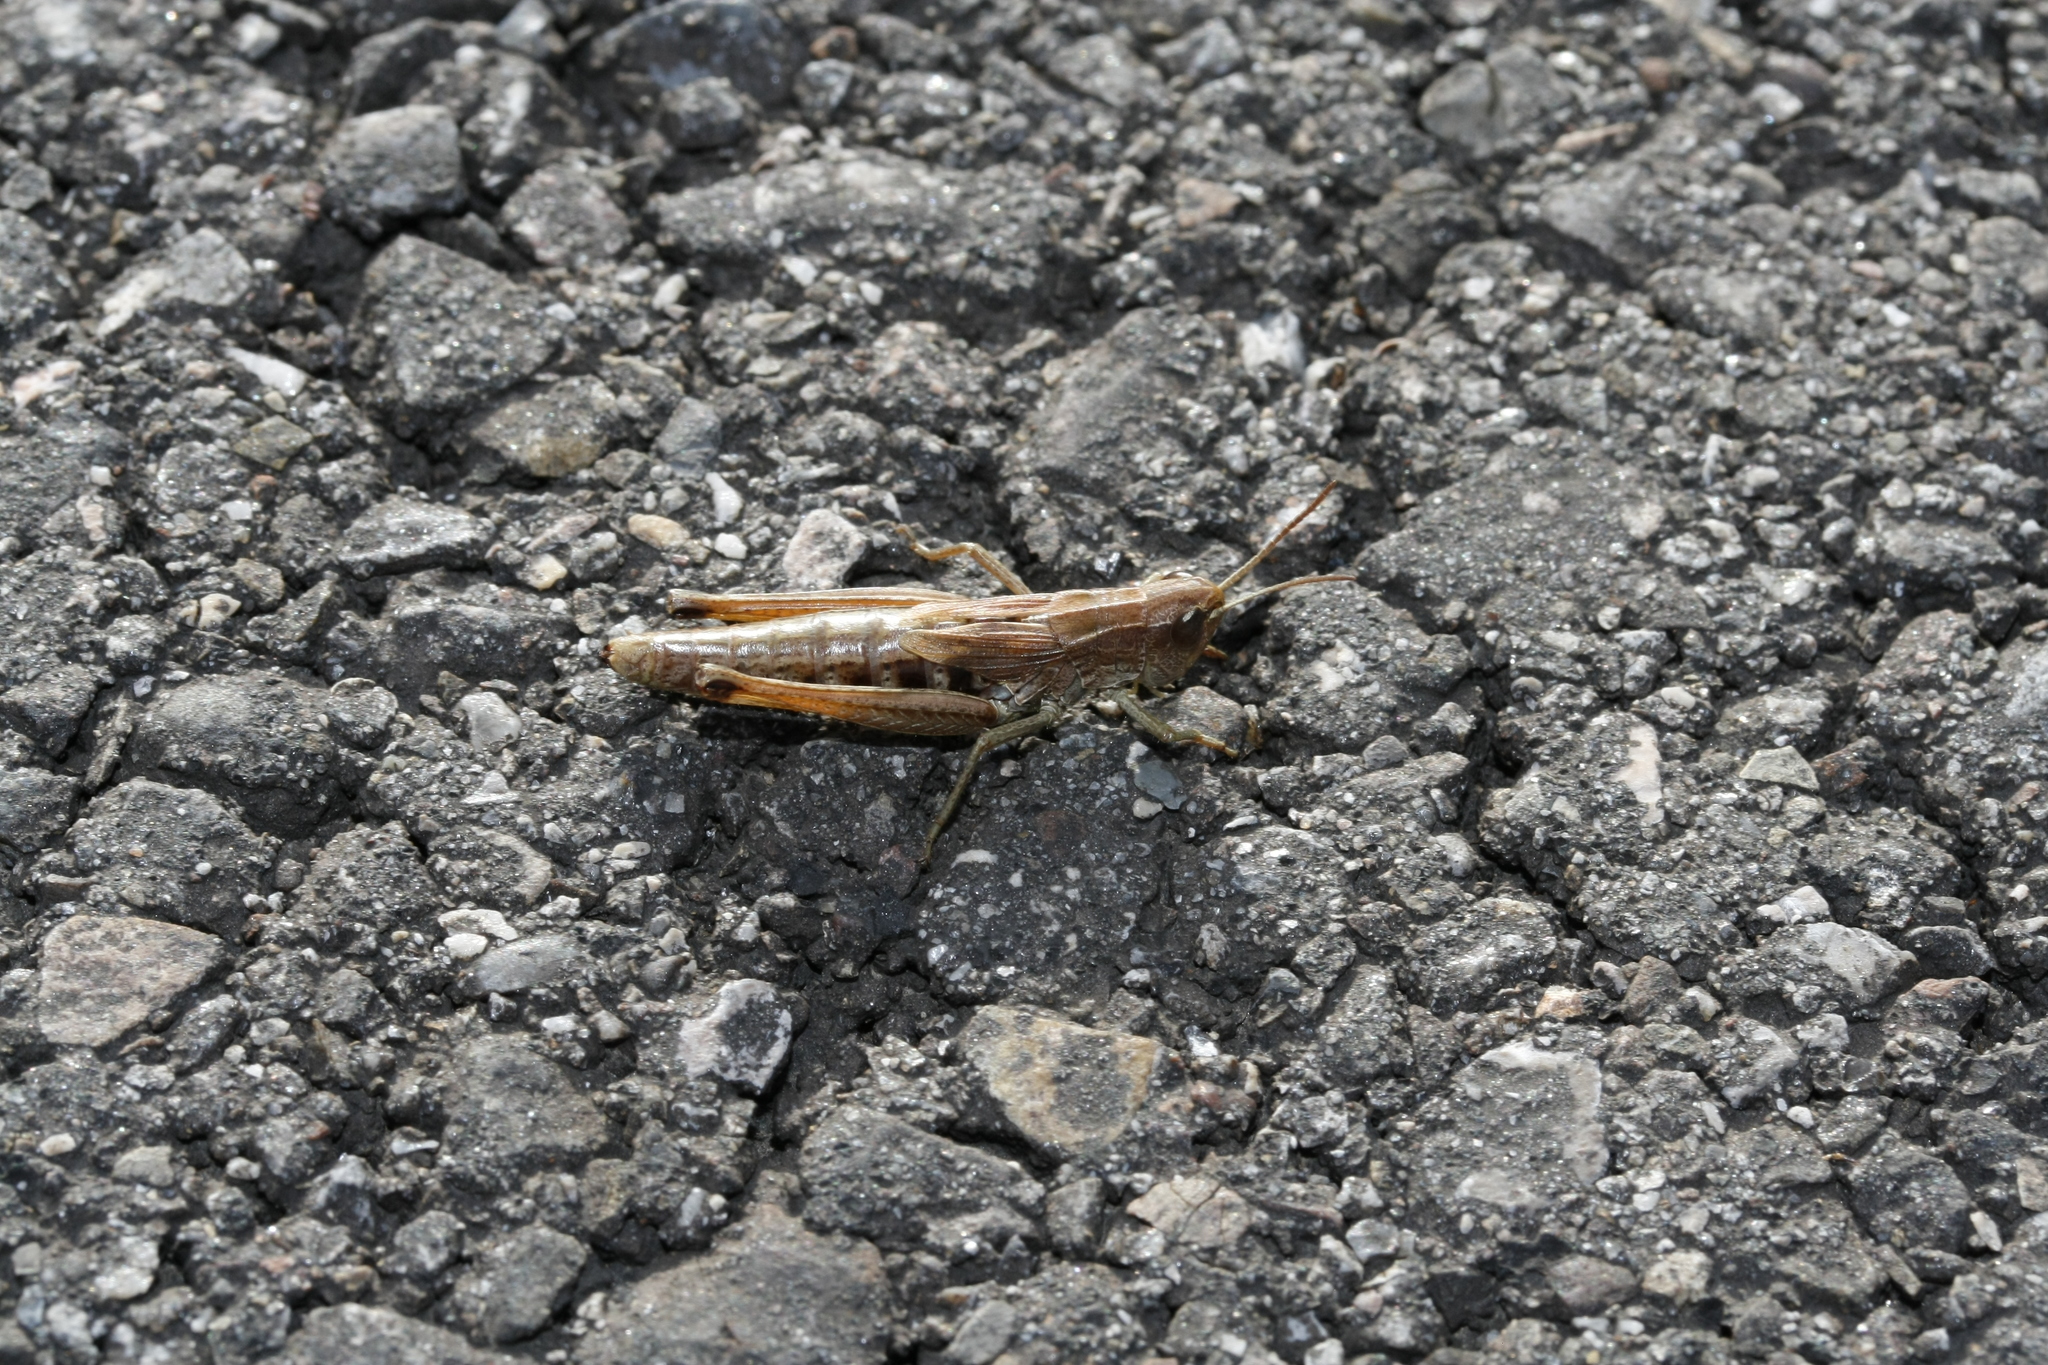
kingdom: Animalia
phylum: Arthropoda
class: Insecta
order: Orthoptera
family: Acrididae
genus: Pseudochorthippus
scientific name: Pseudochorthippus parallelus
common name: Meadow grasshopper
